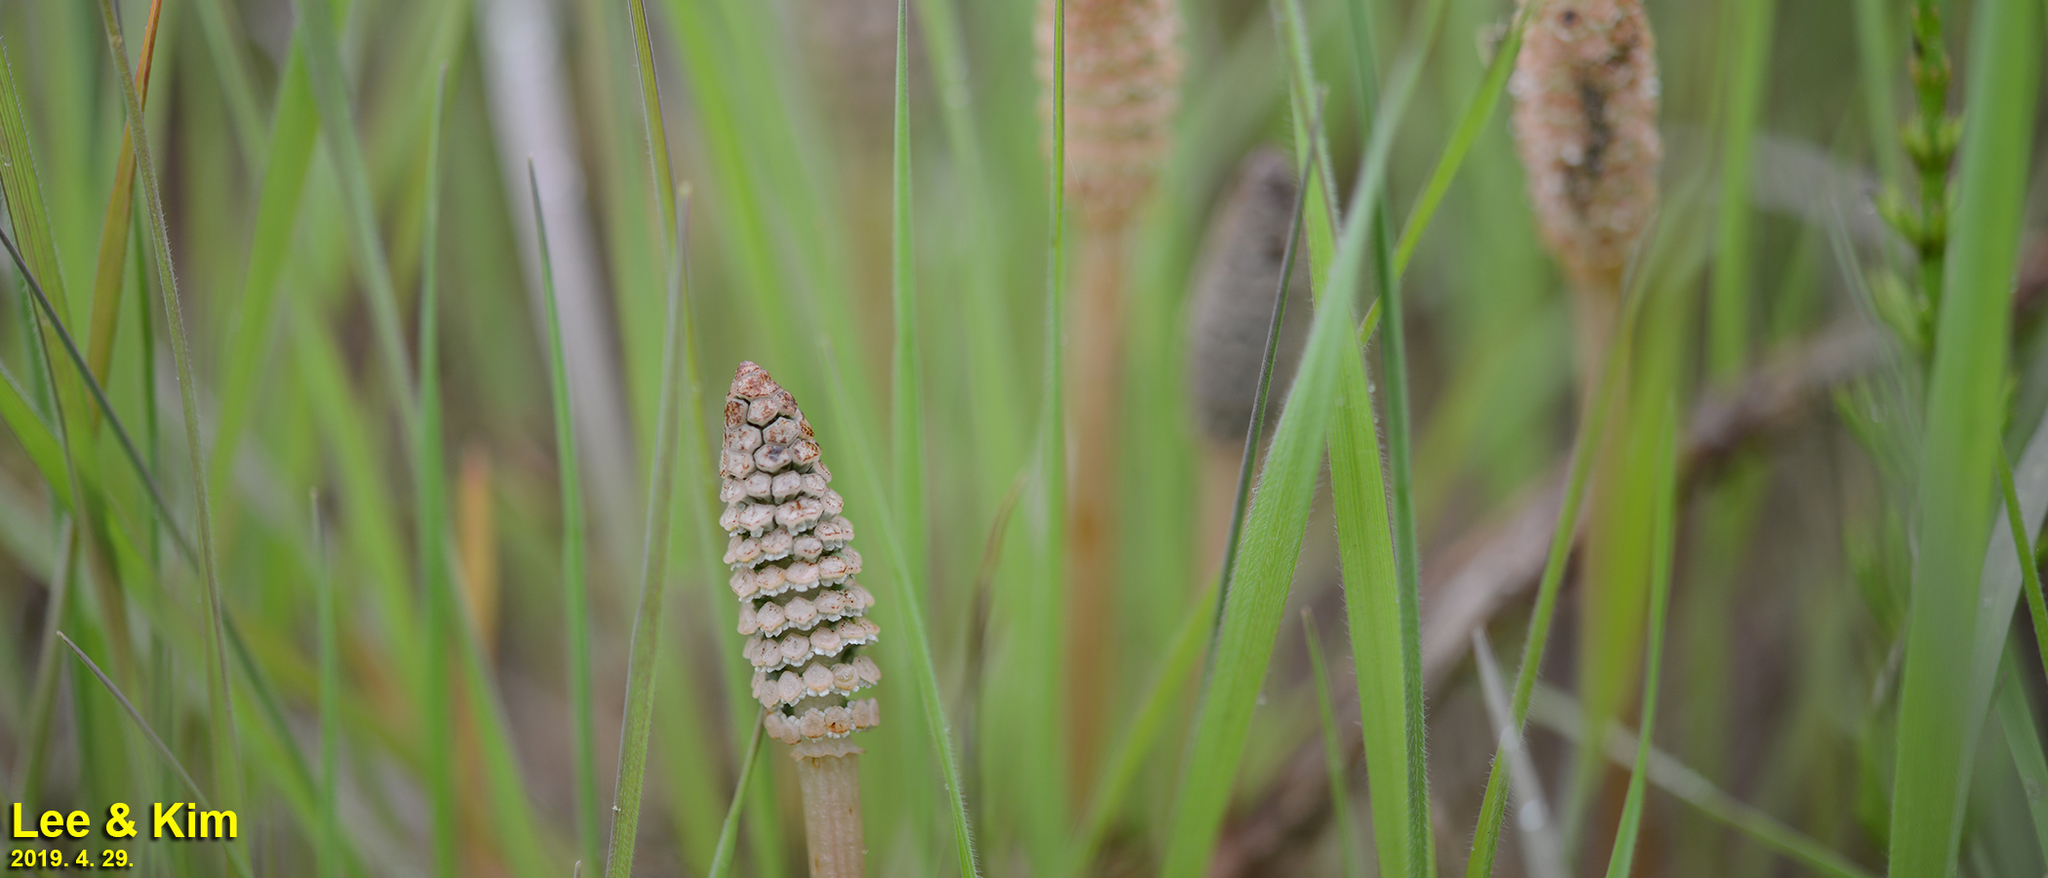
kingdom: Plantae
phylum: Tracheophyta
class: Polypodiopsida
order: Equisetales
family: Equisetaceae
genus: Equisetum
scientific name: Equisetum arvense
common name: Field horsetail
